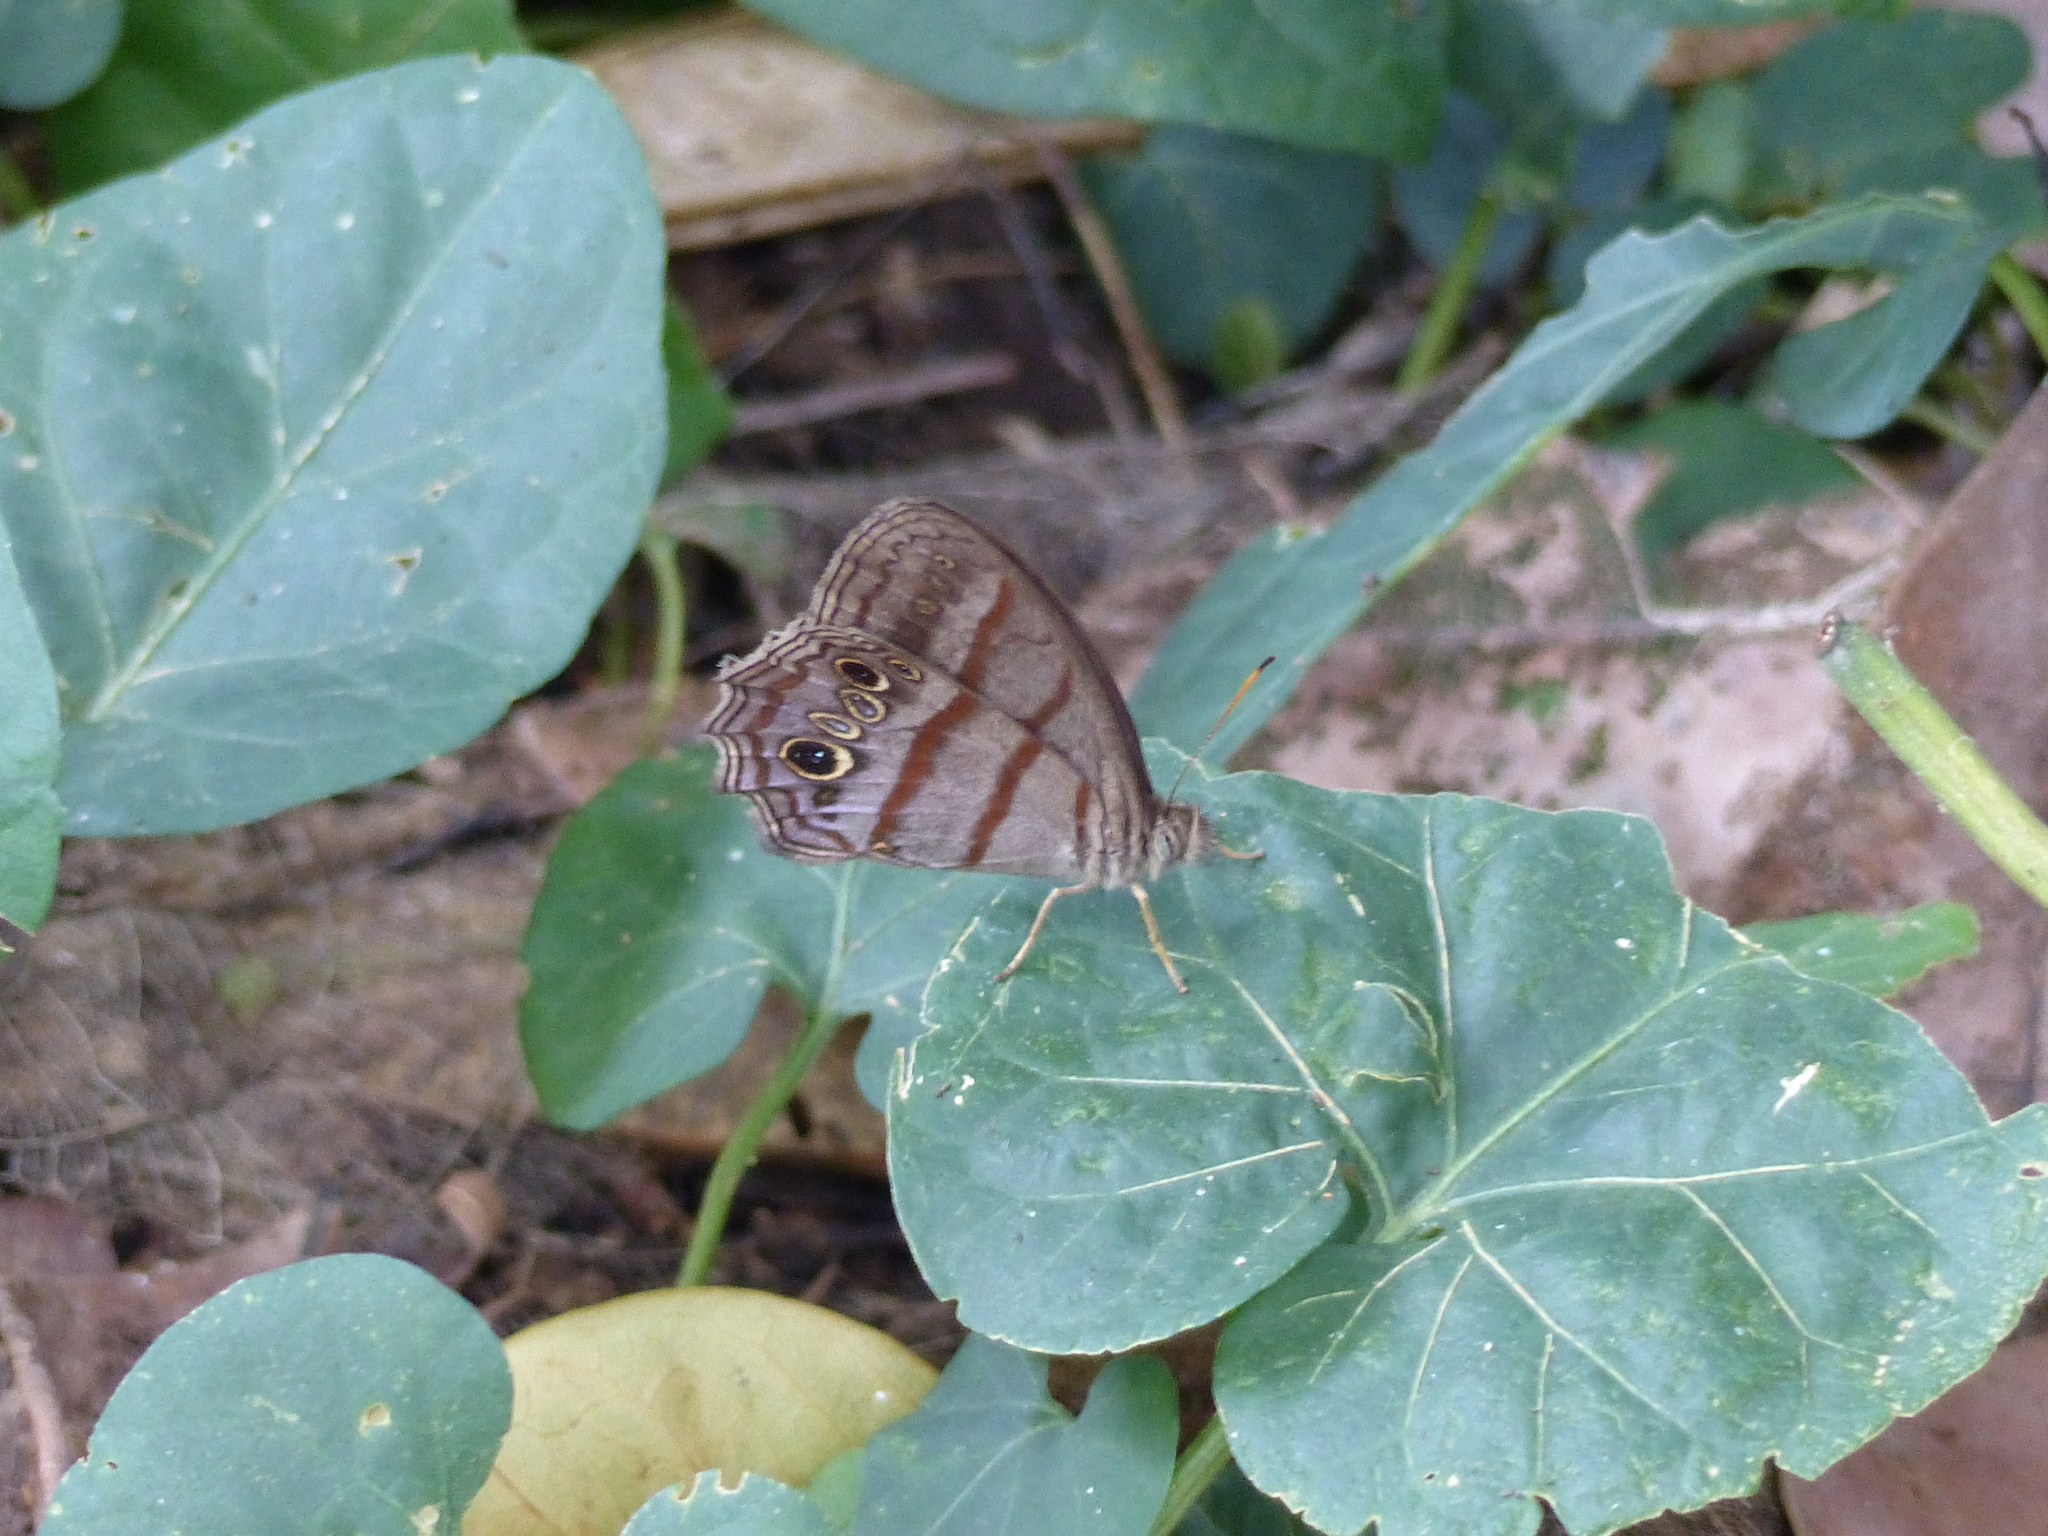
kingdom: Animalia
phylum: Arthropoda
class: Insecta
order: Lepidoptera
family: Nymphalidae
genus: Magneuptychia
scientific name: Magneuptychia libye
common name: Blue-gray satyr
